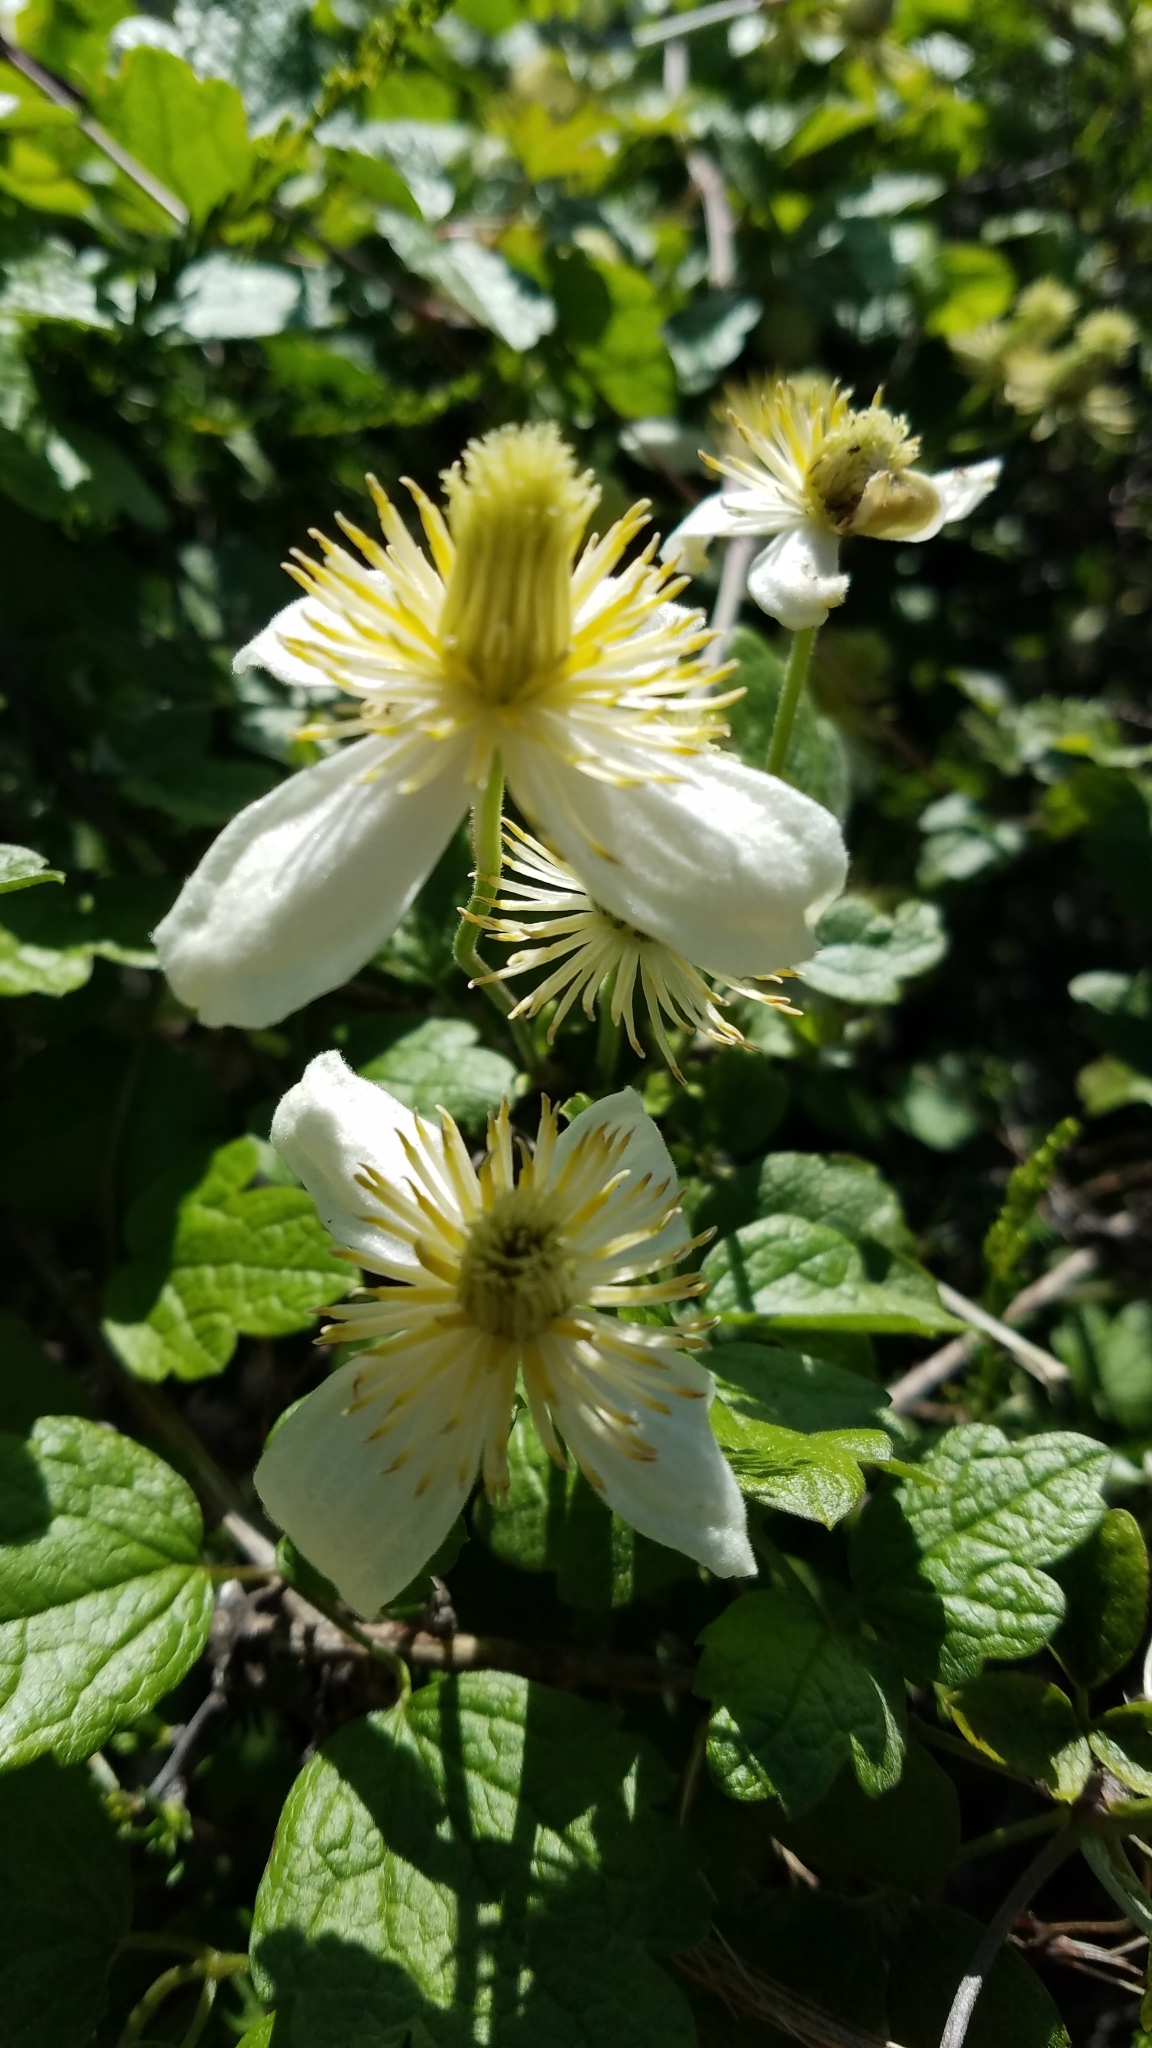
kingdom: Plantae
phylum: Tracheophyta
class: Magnoliopsida
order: Ranunculales
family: Ranunculaceae
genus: Clematis
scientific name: Clematis lasiantha
